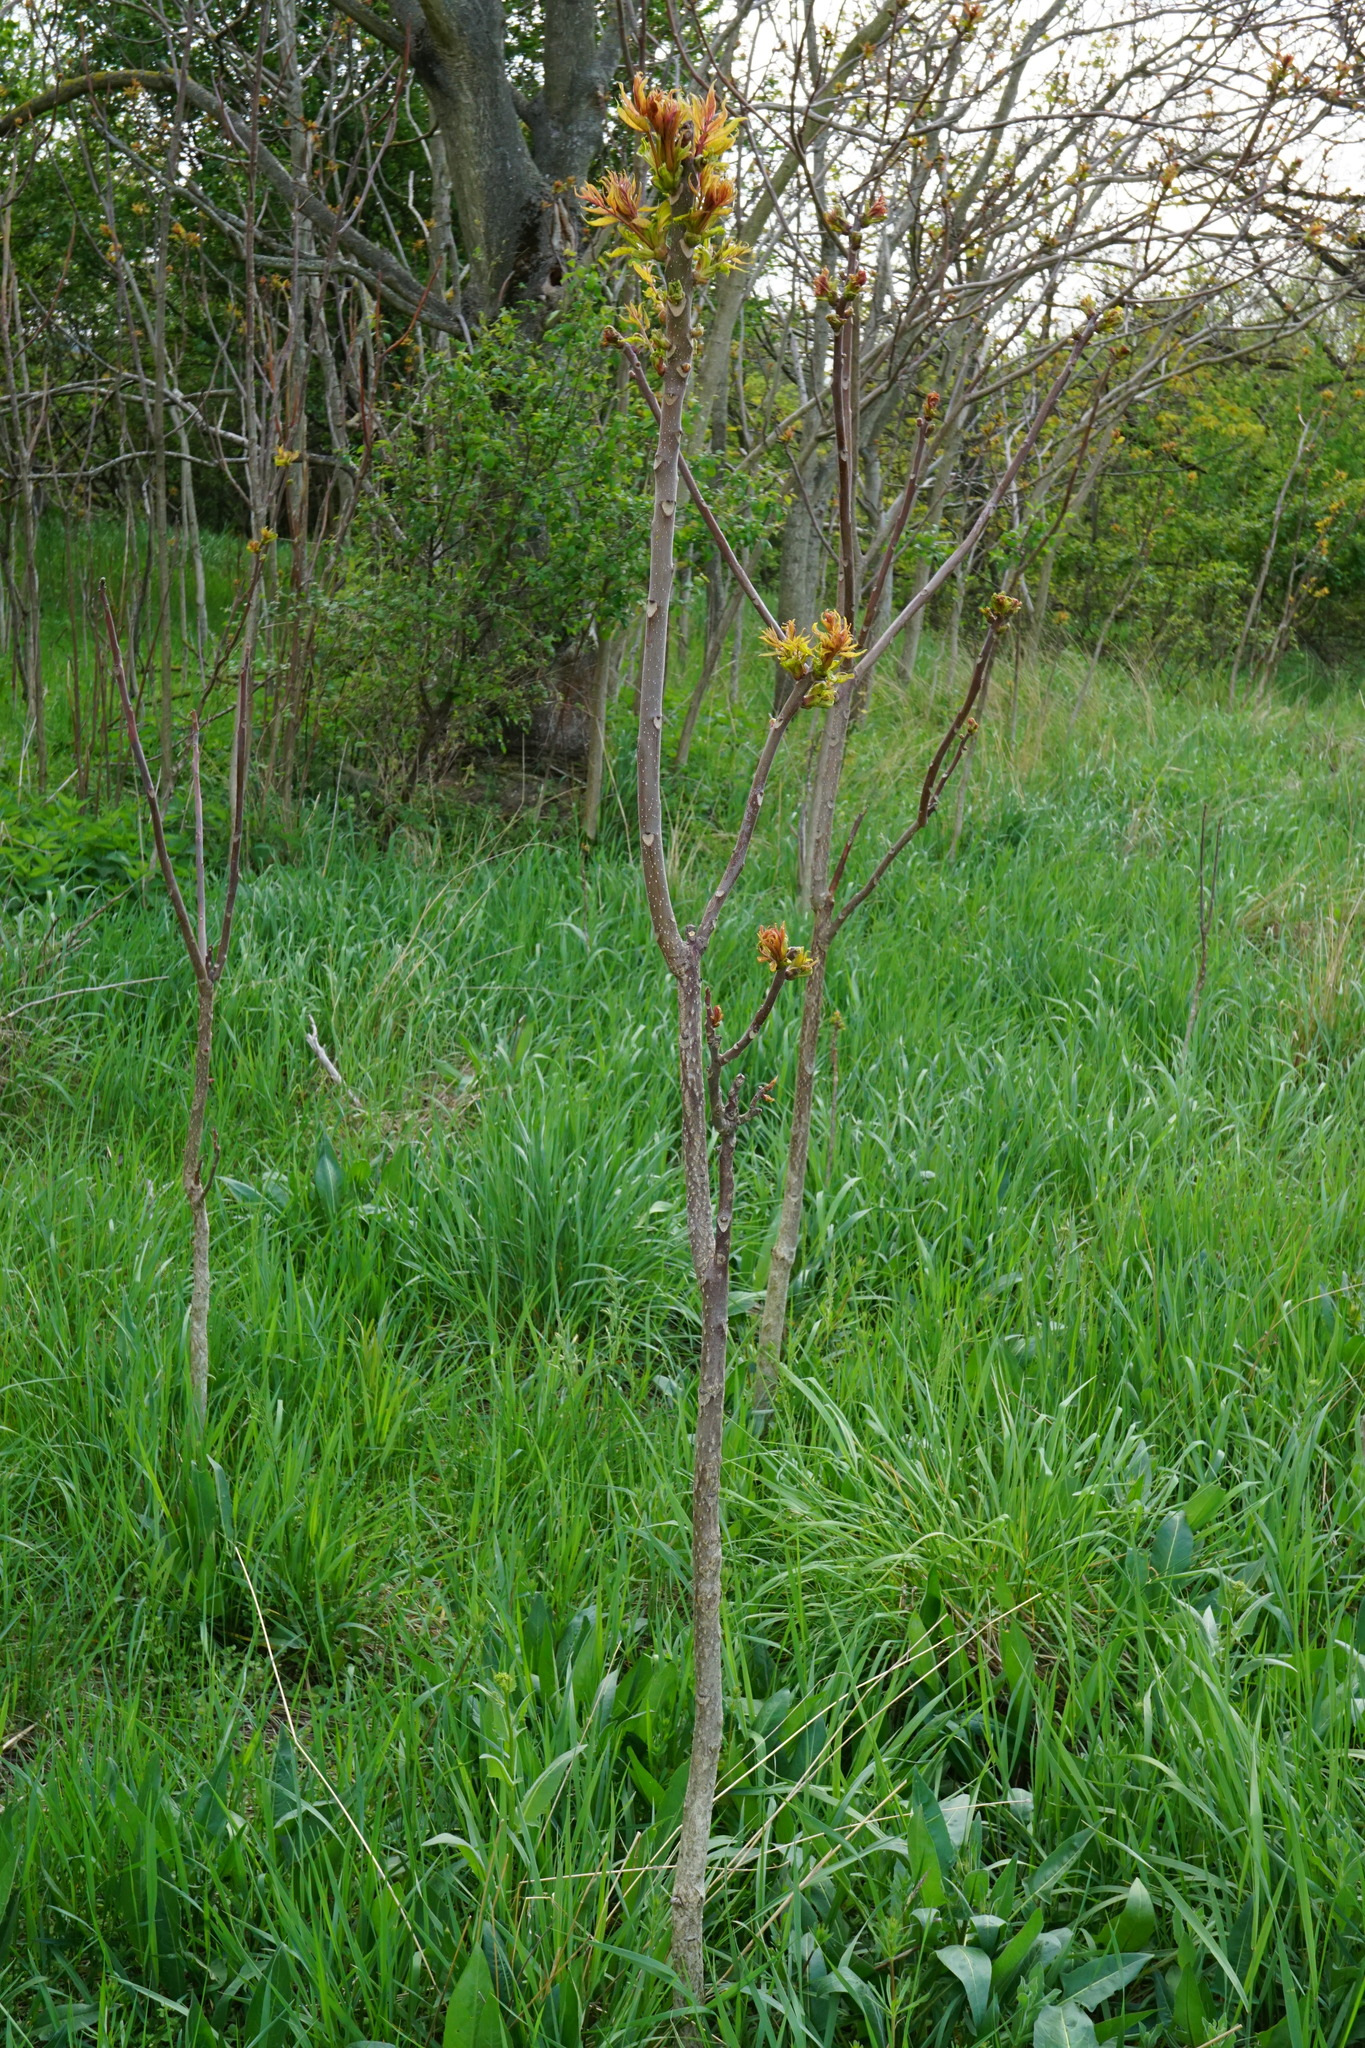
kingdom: Plantae
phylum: Tracheophyta
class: Magnoliopsida
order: Sapindales
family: Simaroubaceae
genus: Ailanthus
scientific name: Ailanthus altissima
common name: Tree-of-heaven
